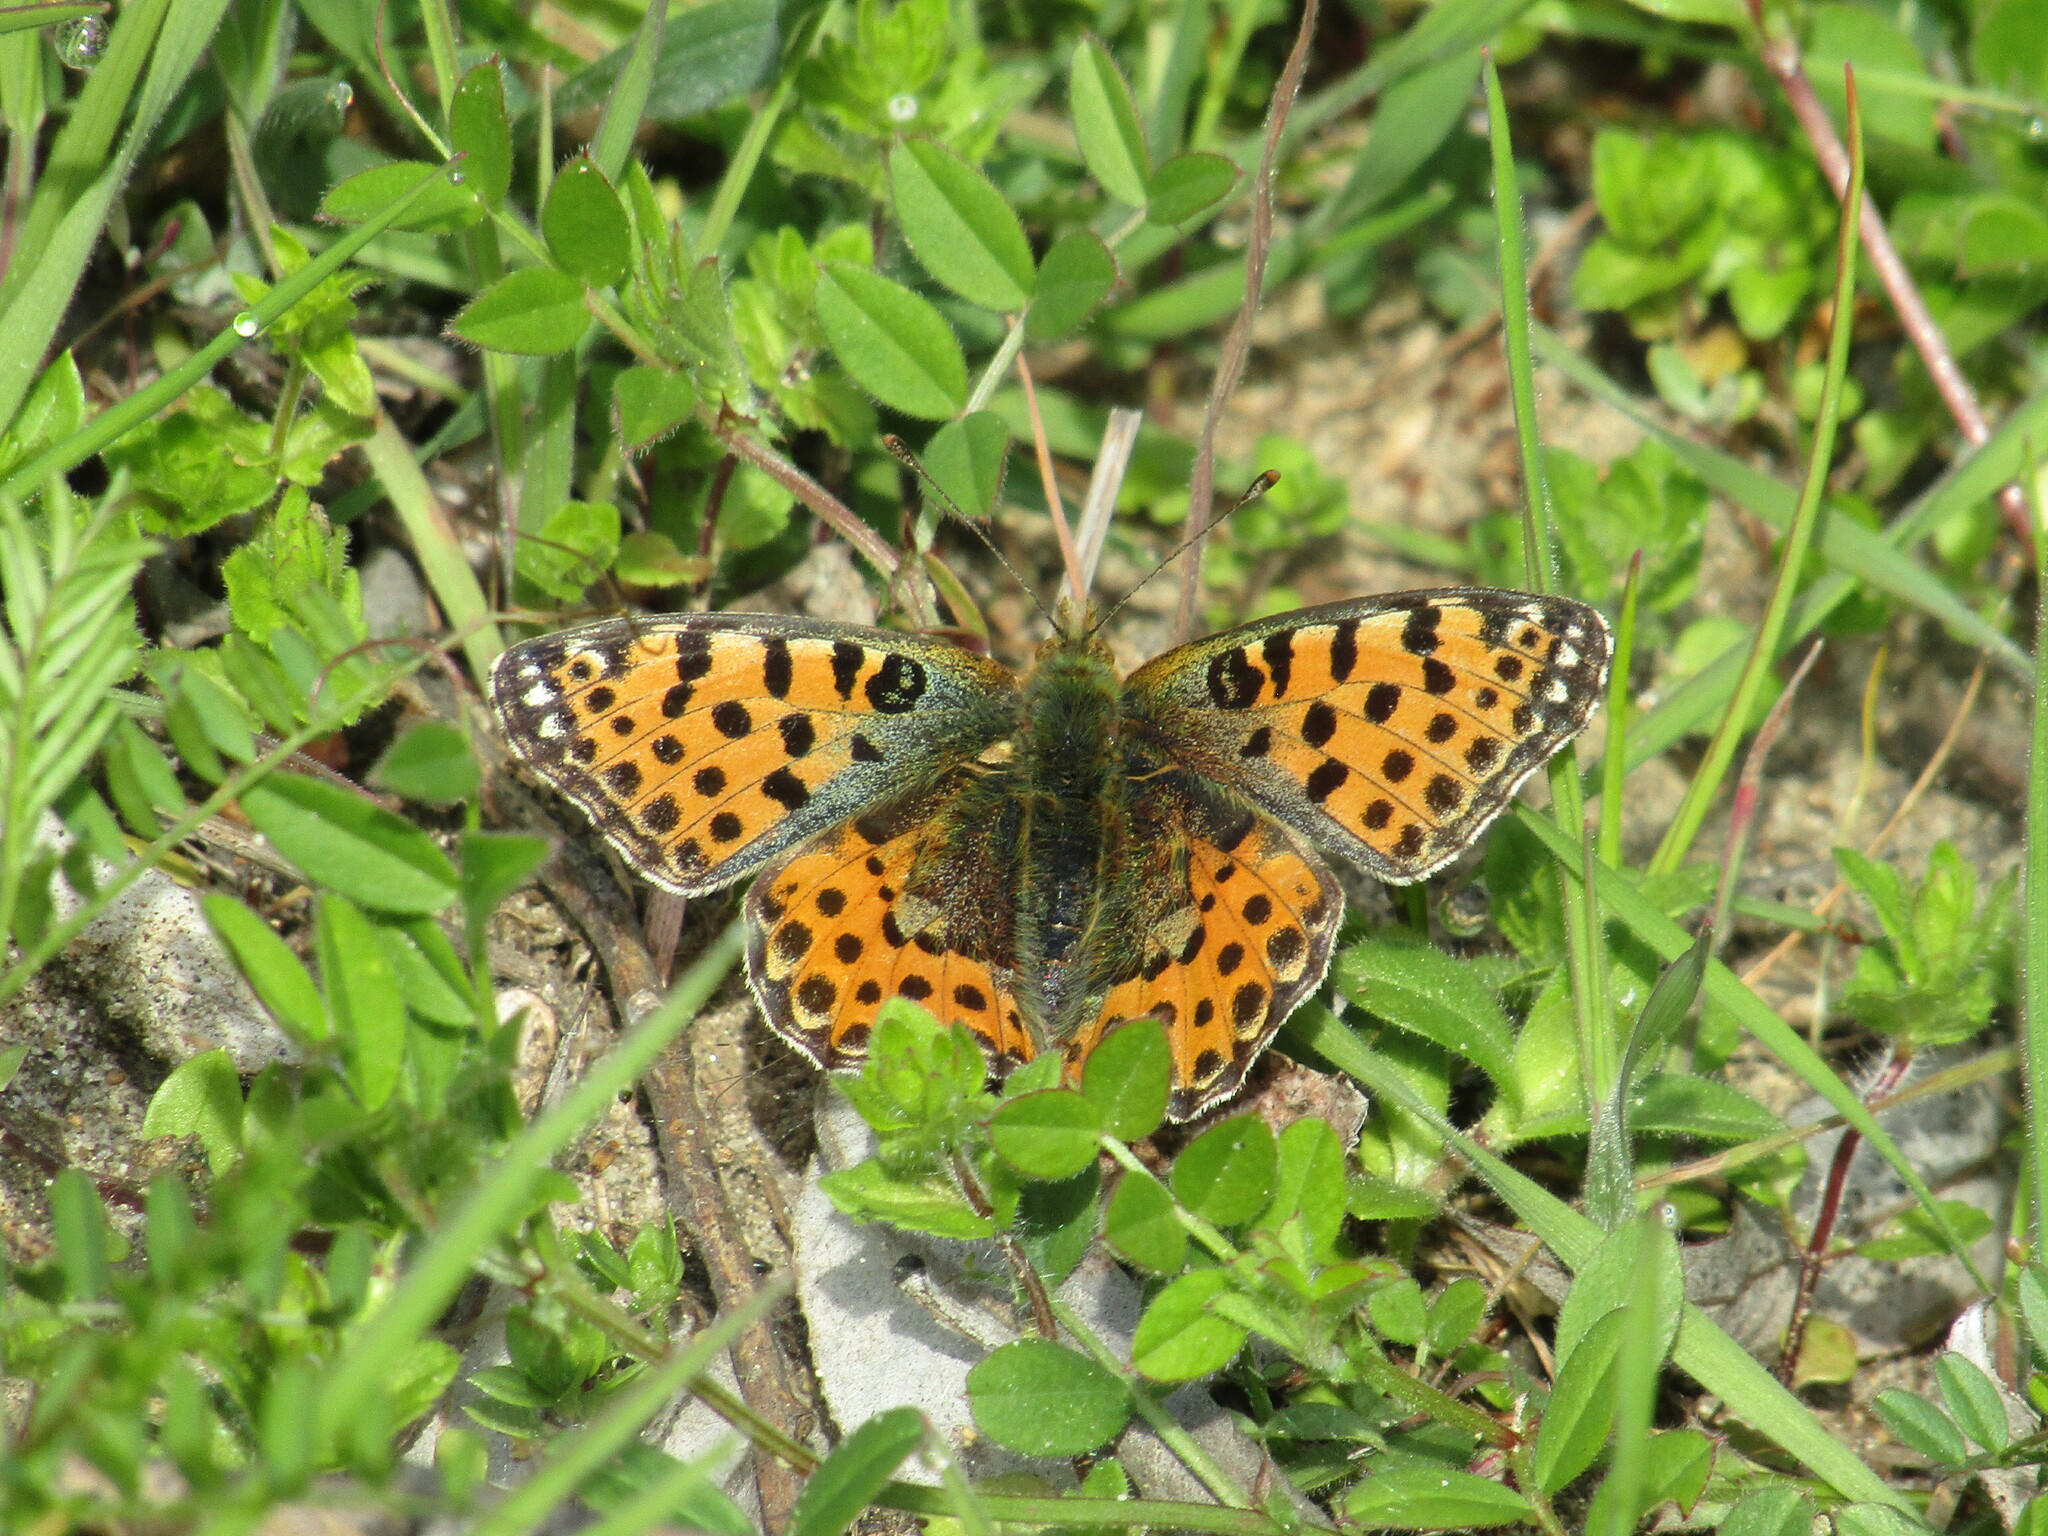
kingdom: Animalia
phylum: Arthropoda
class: Insecta
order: Lepidoptera
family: Nymphalidae
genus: Issoria
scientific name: Issoria lathonia
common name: Queen of spain fritillary
